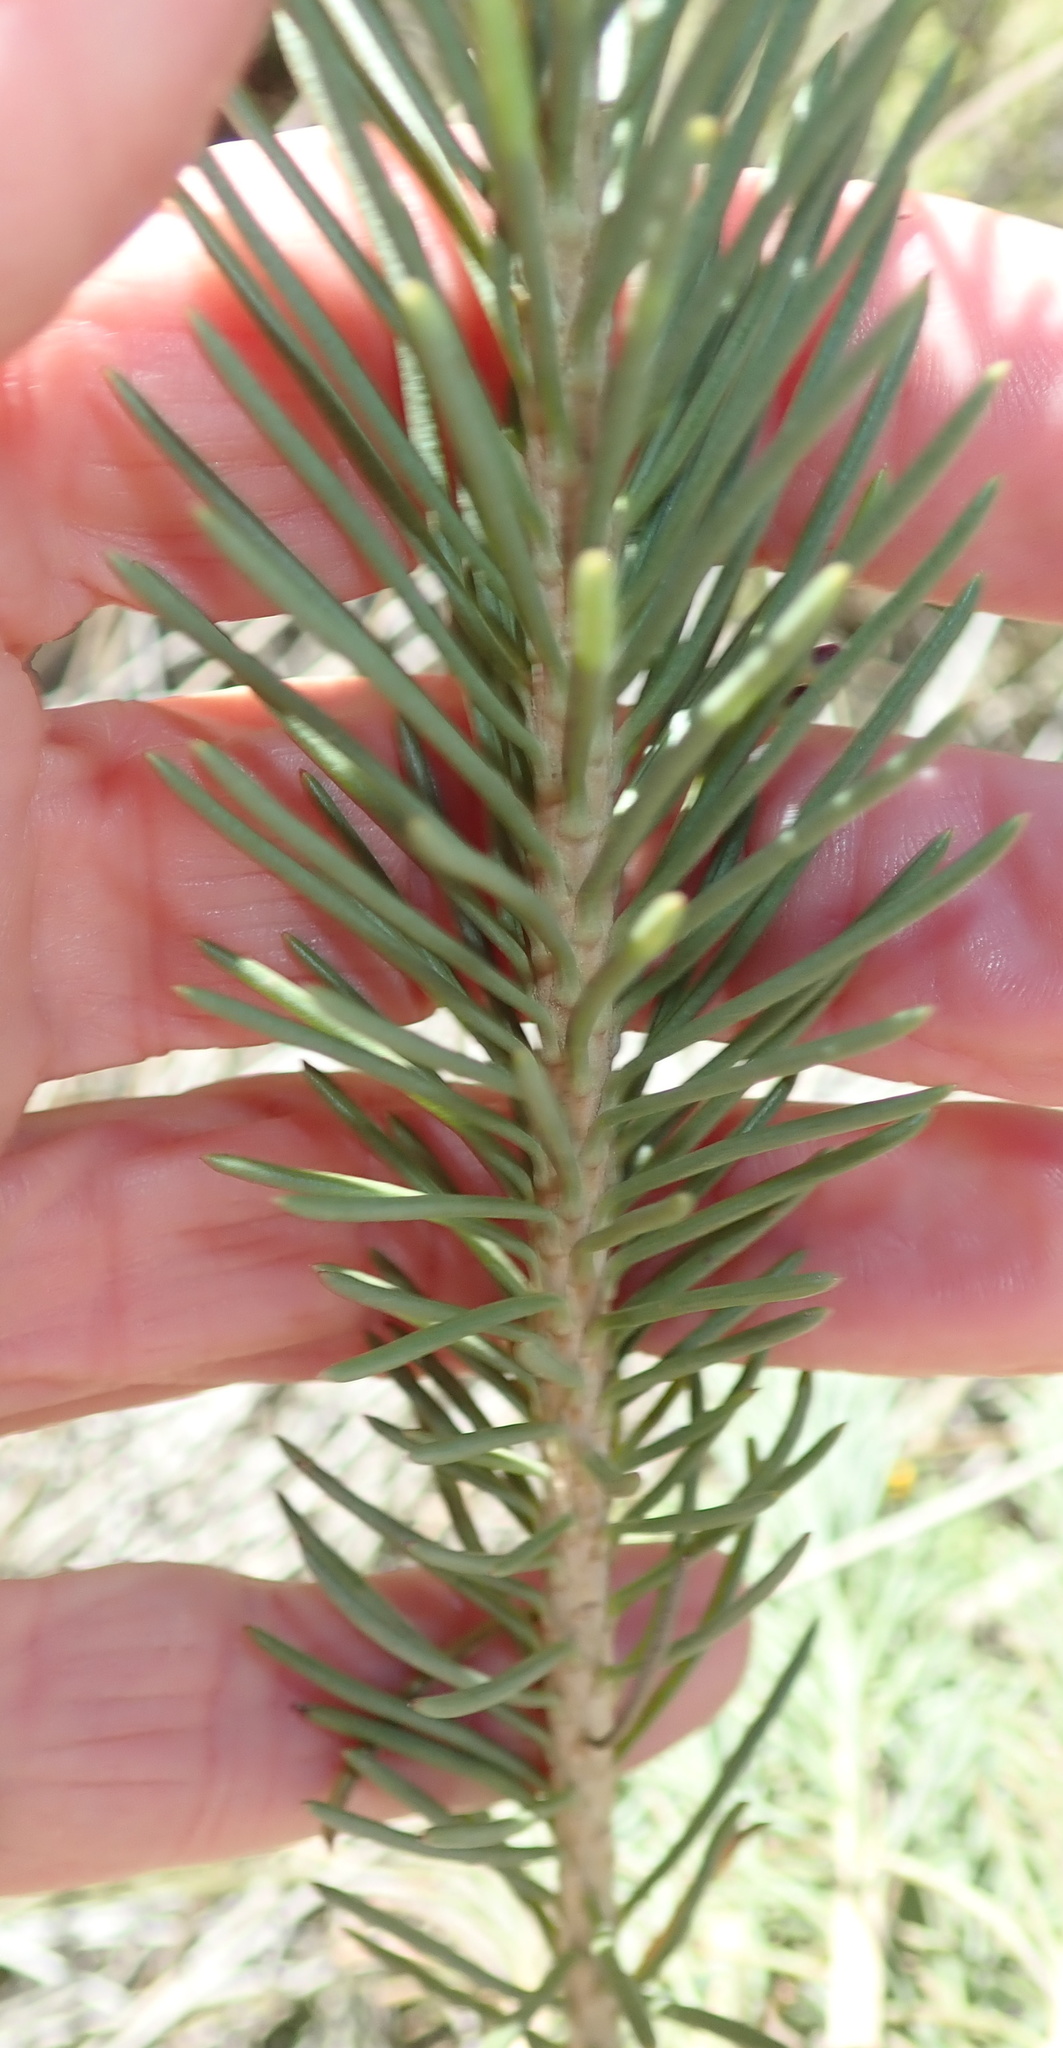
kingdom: Plantae
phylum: Tracheophyta
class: Magnoliopsida
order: Asterales
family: Asteraceae
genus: Euryops
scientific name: Euryops rehmannii
